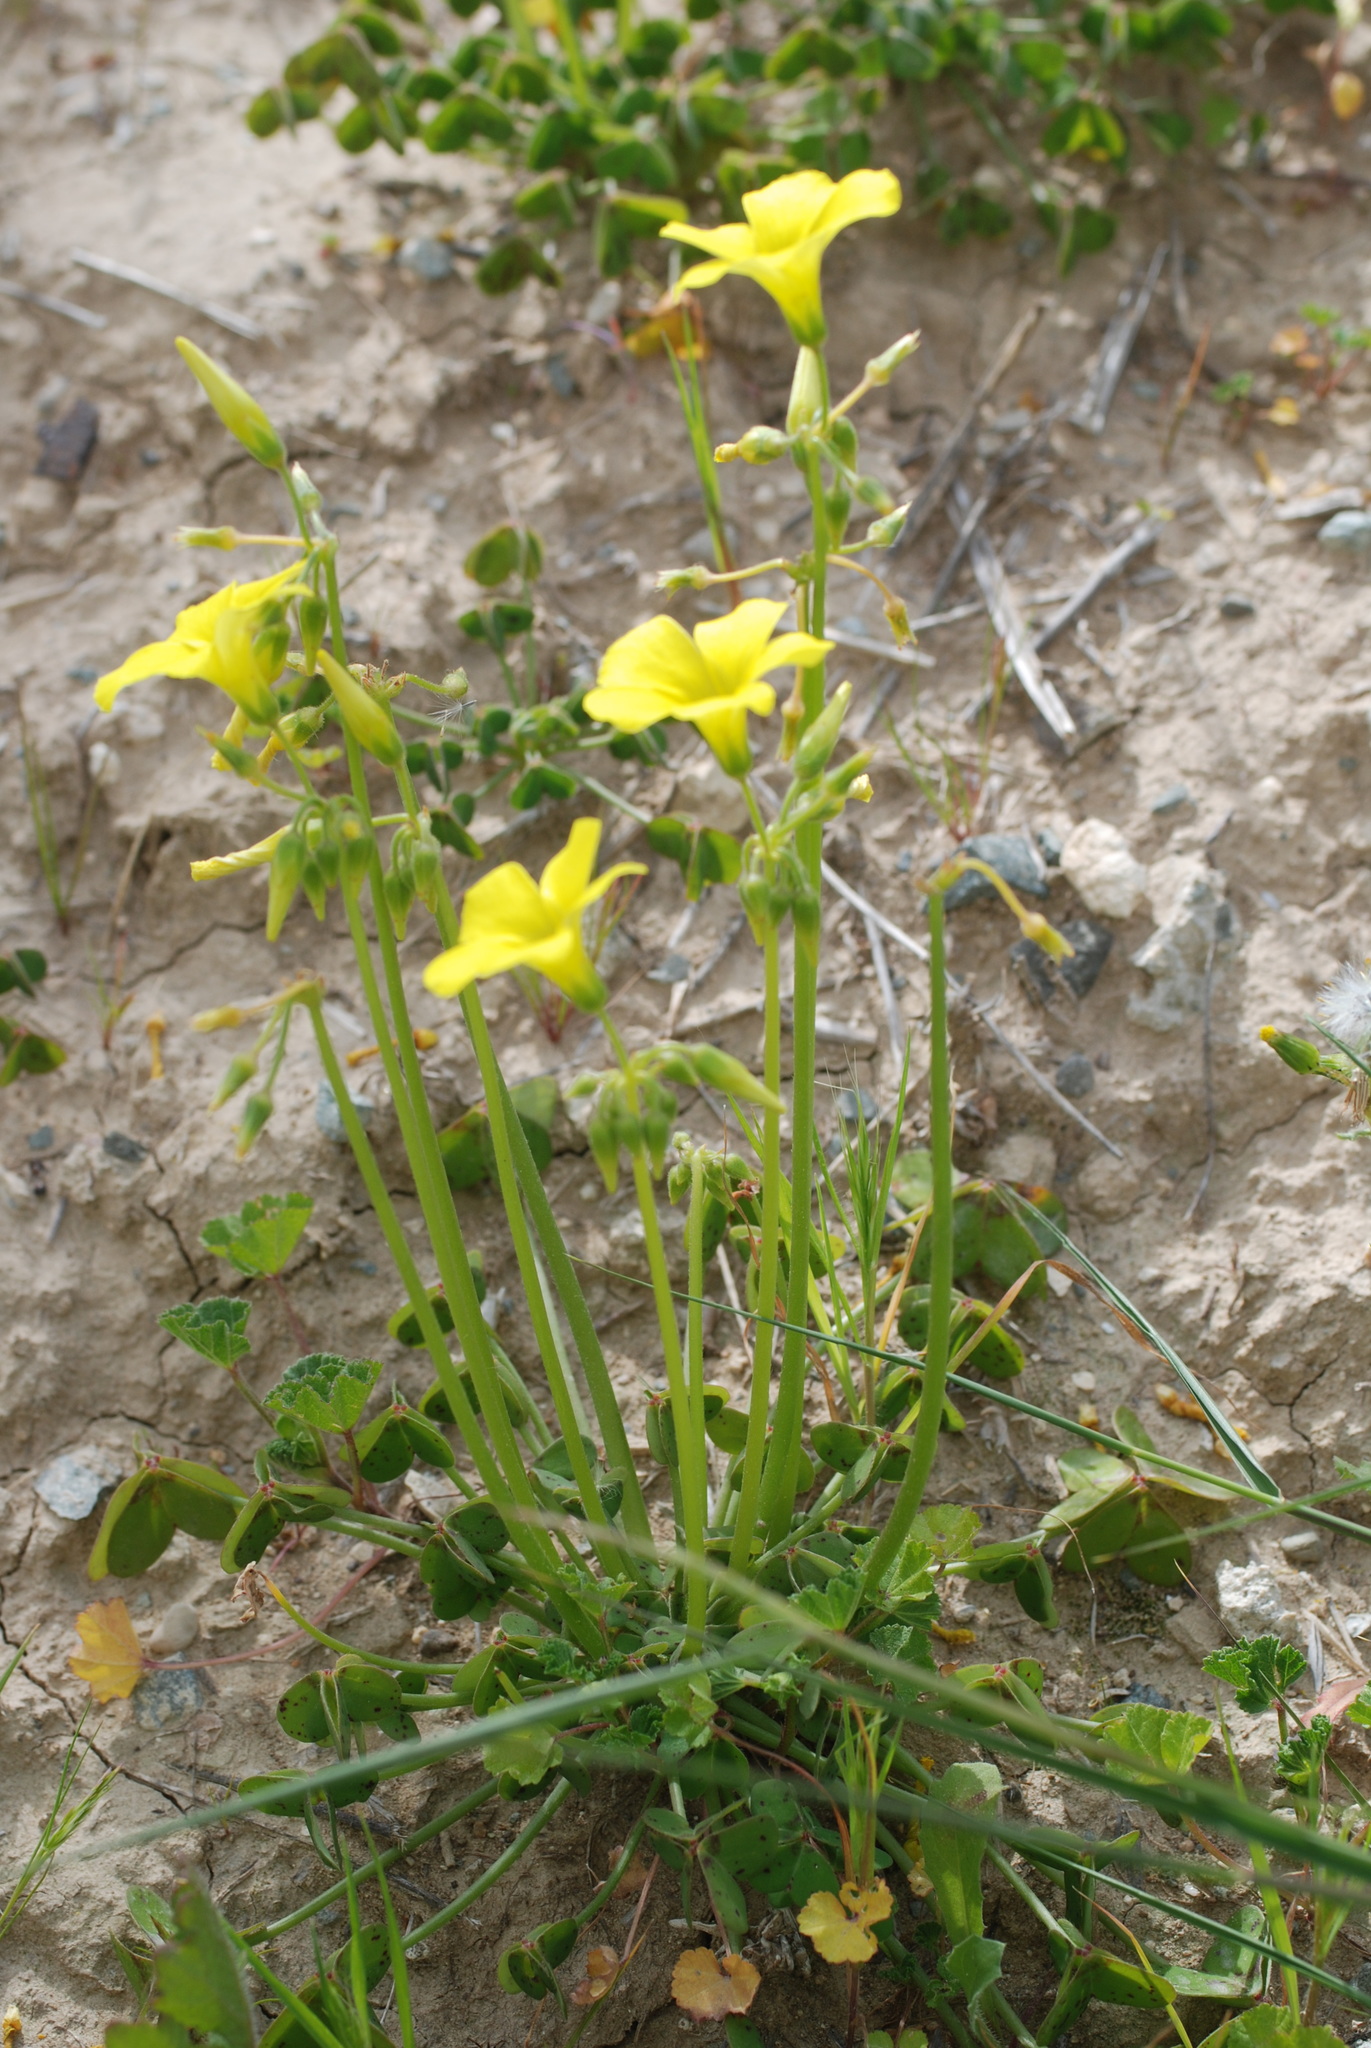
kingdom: Plantae
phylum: Tracheophyta
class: Magnoliopsida
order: Oxalidales
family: Oxalidaceae
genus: Oxalis
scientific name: Oxalis pes-caprae
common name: Bermuda-buttercup
